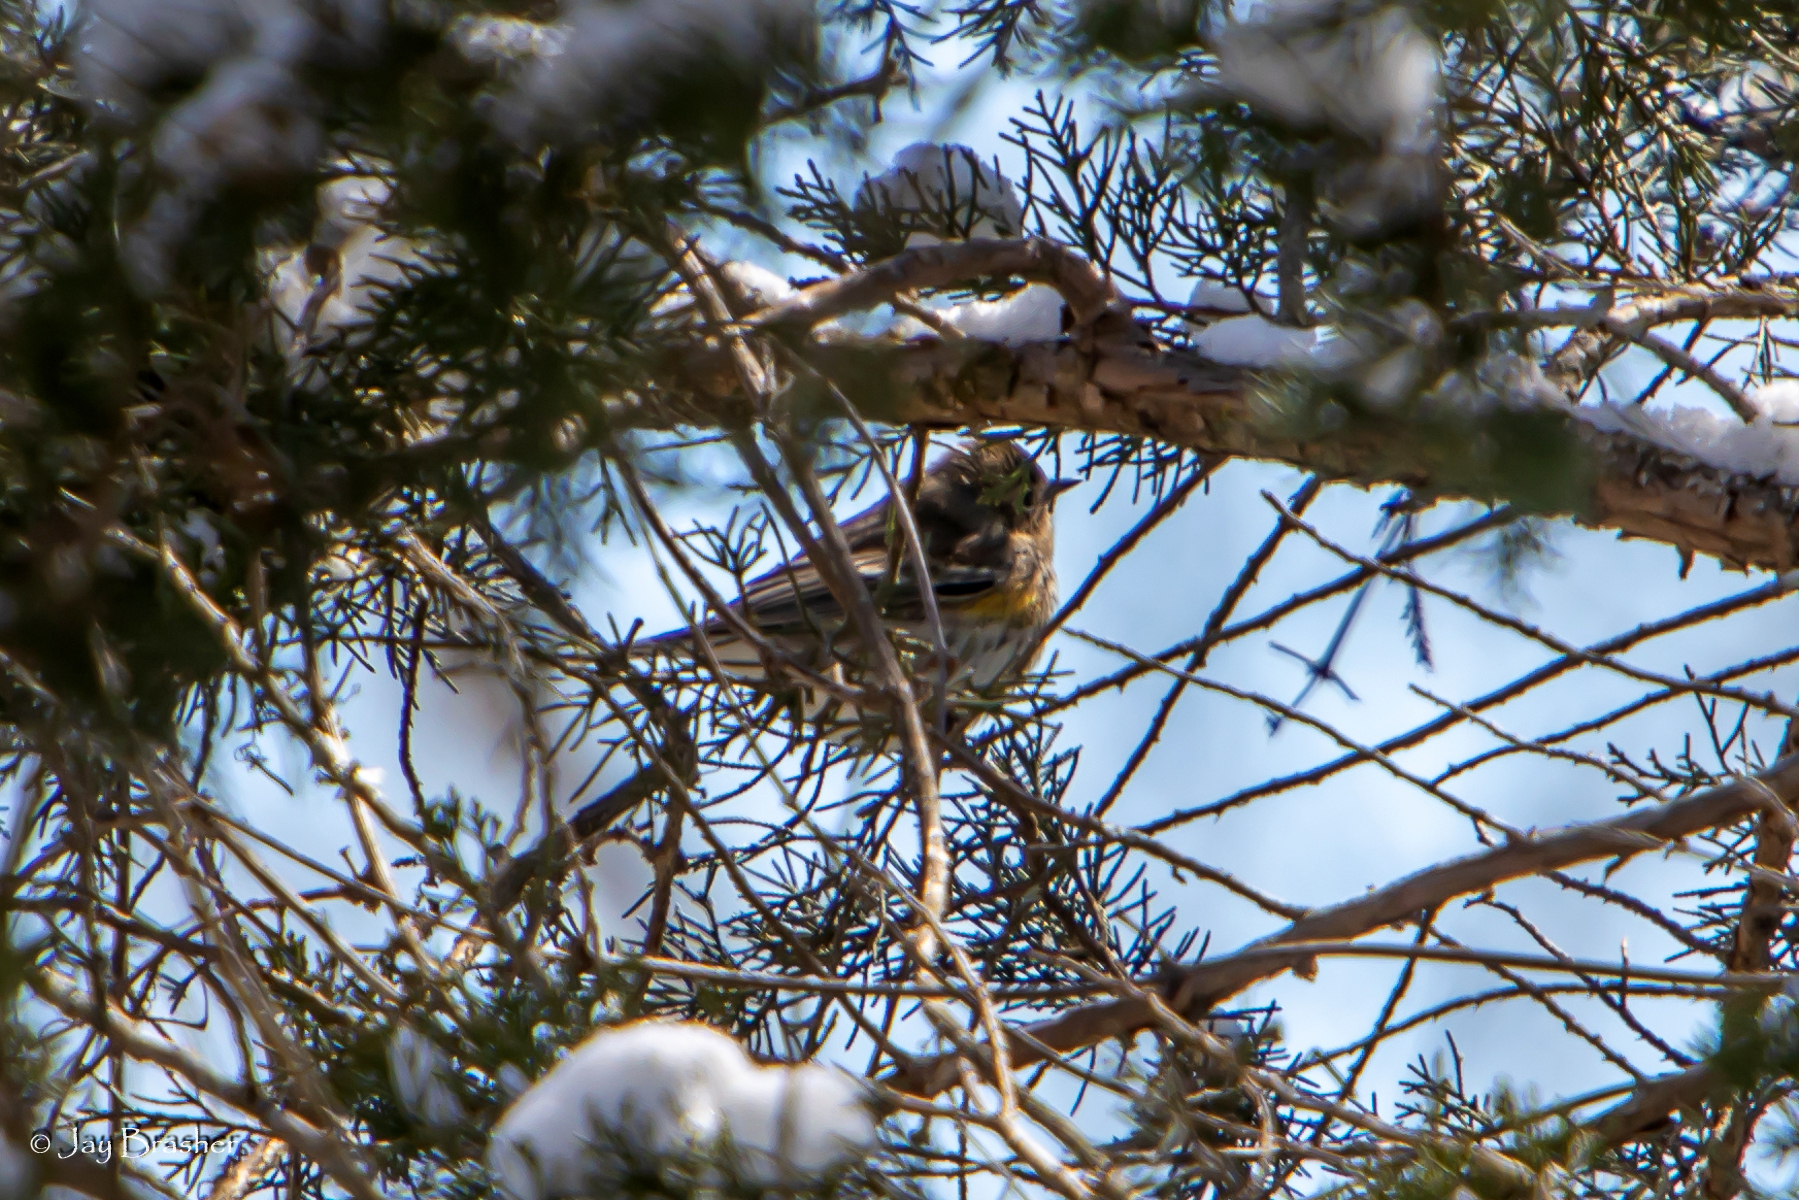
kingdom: Animalia
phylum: Chordata
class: Aves
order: Passeriformes
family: Parulidae
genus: Setophaga
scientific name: Setophaga coronata
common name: Myrtle warbler
